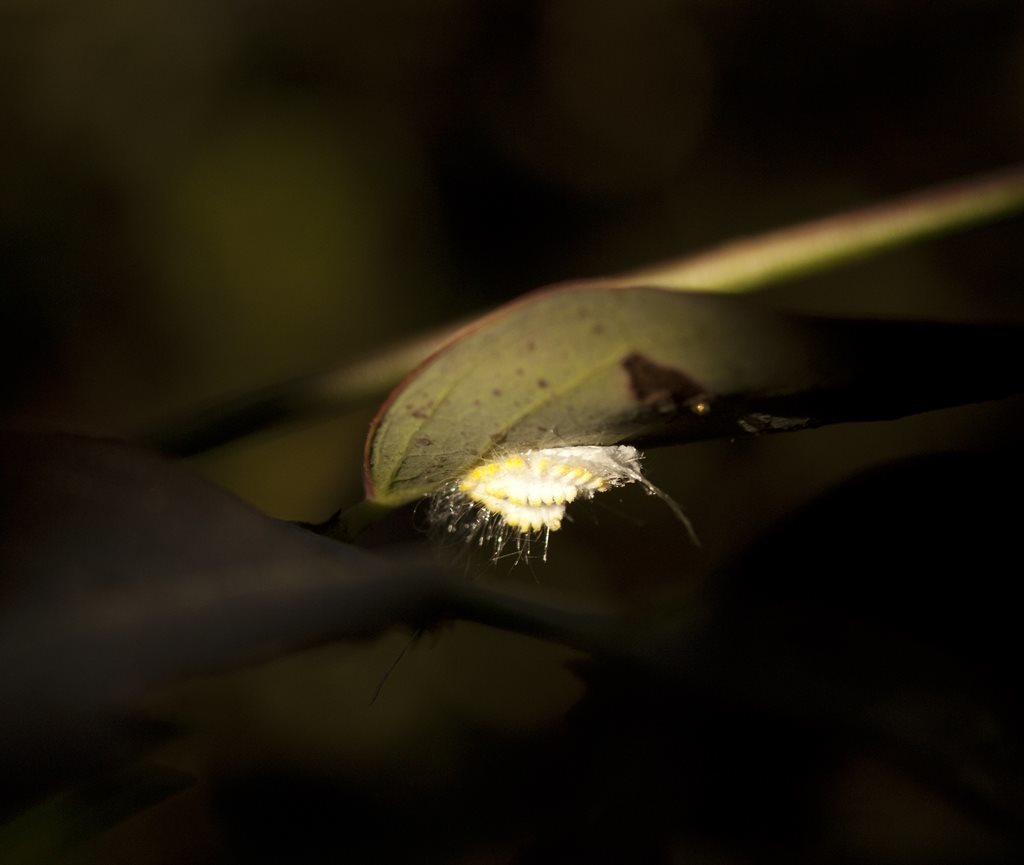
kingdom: Animalia
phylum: Arthropoda
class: Insecta
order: Hemiptera
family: Margarodidae
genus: Icerya
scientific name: Icerya seychellarum
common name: Iceplant scale
